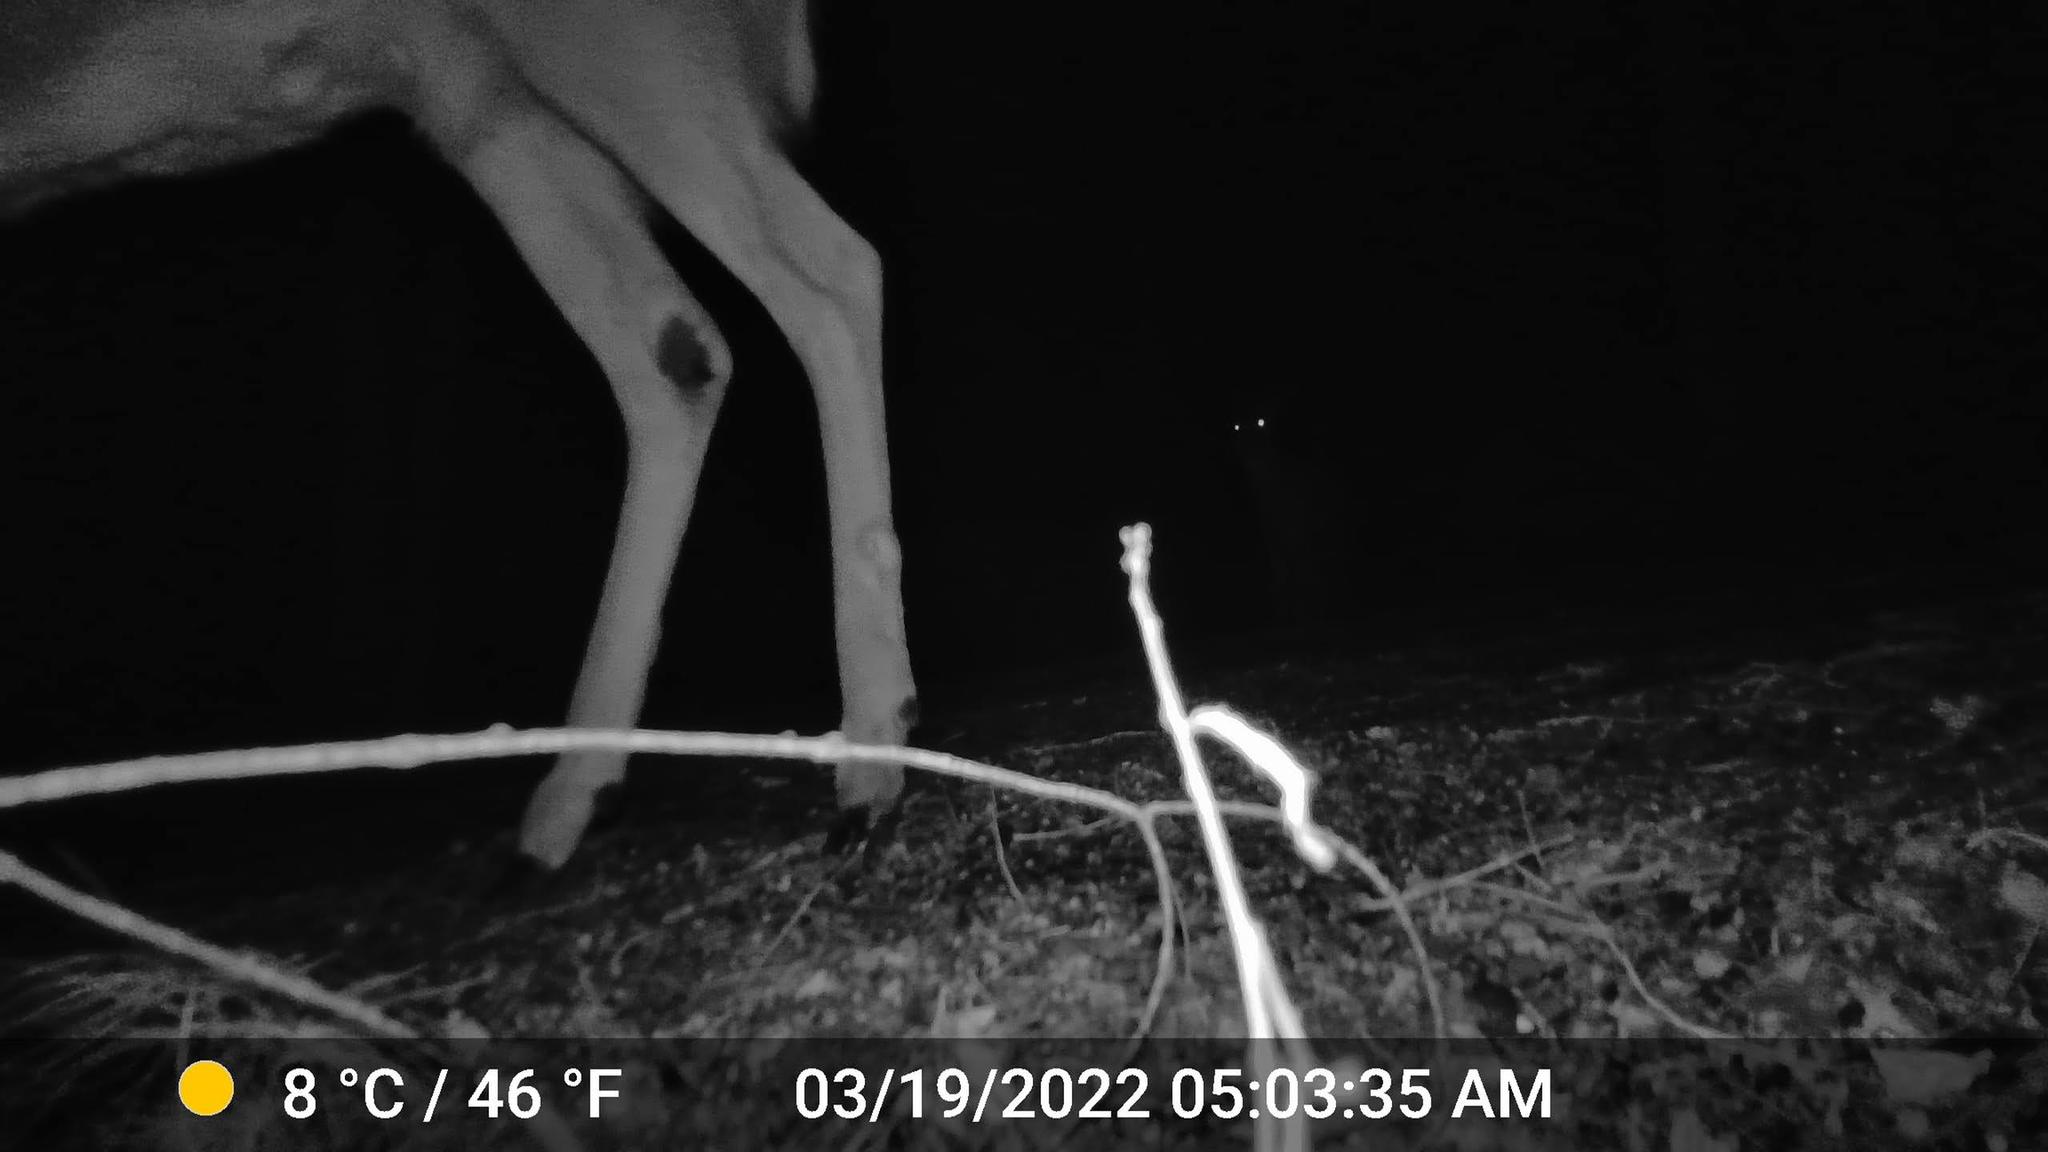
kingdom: Animalia
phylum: Chordata
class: Mammalia
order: Artiodactyla
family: Cervidae
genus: Odocoileus
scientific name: Odocoileus virginianus
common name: White-tailed deer
